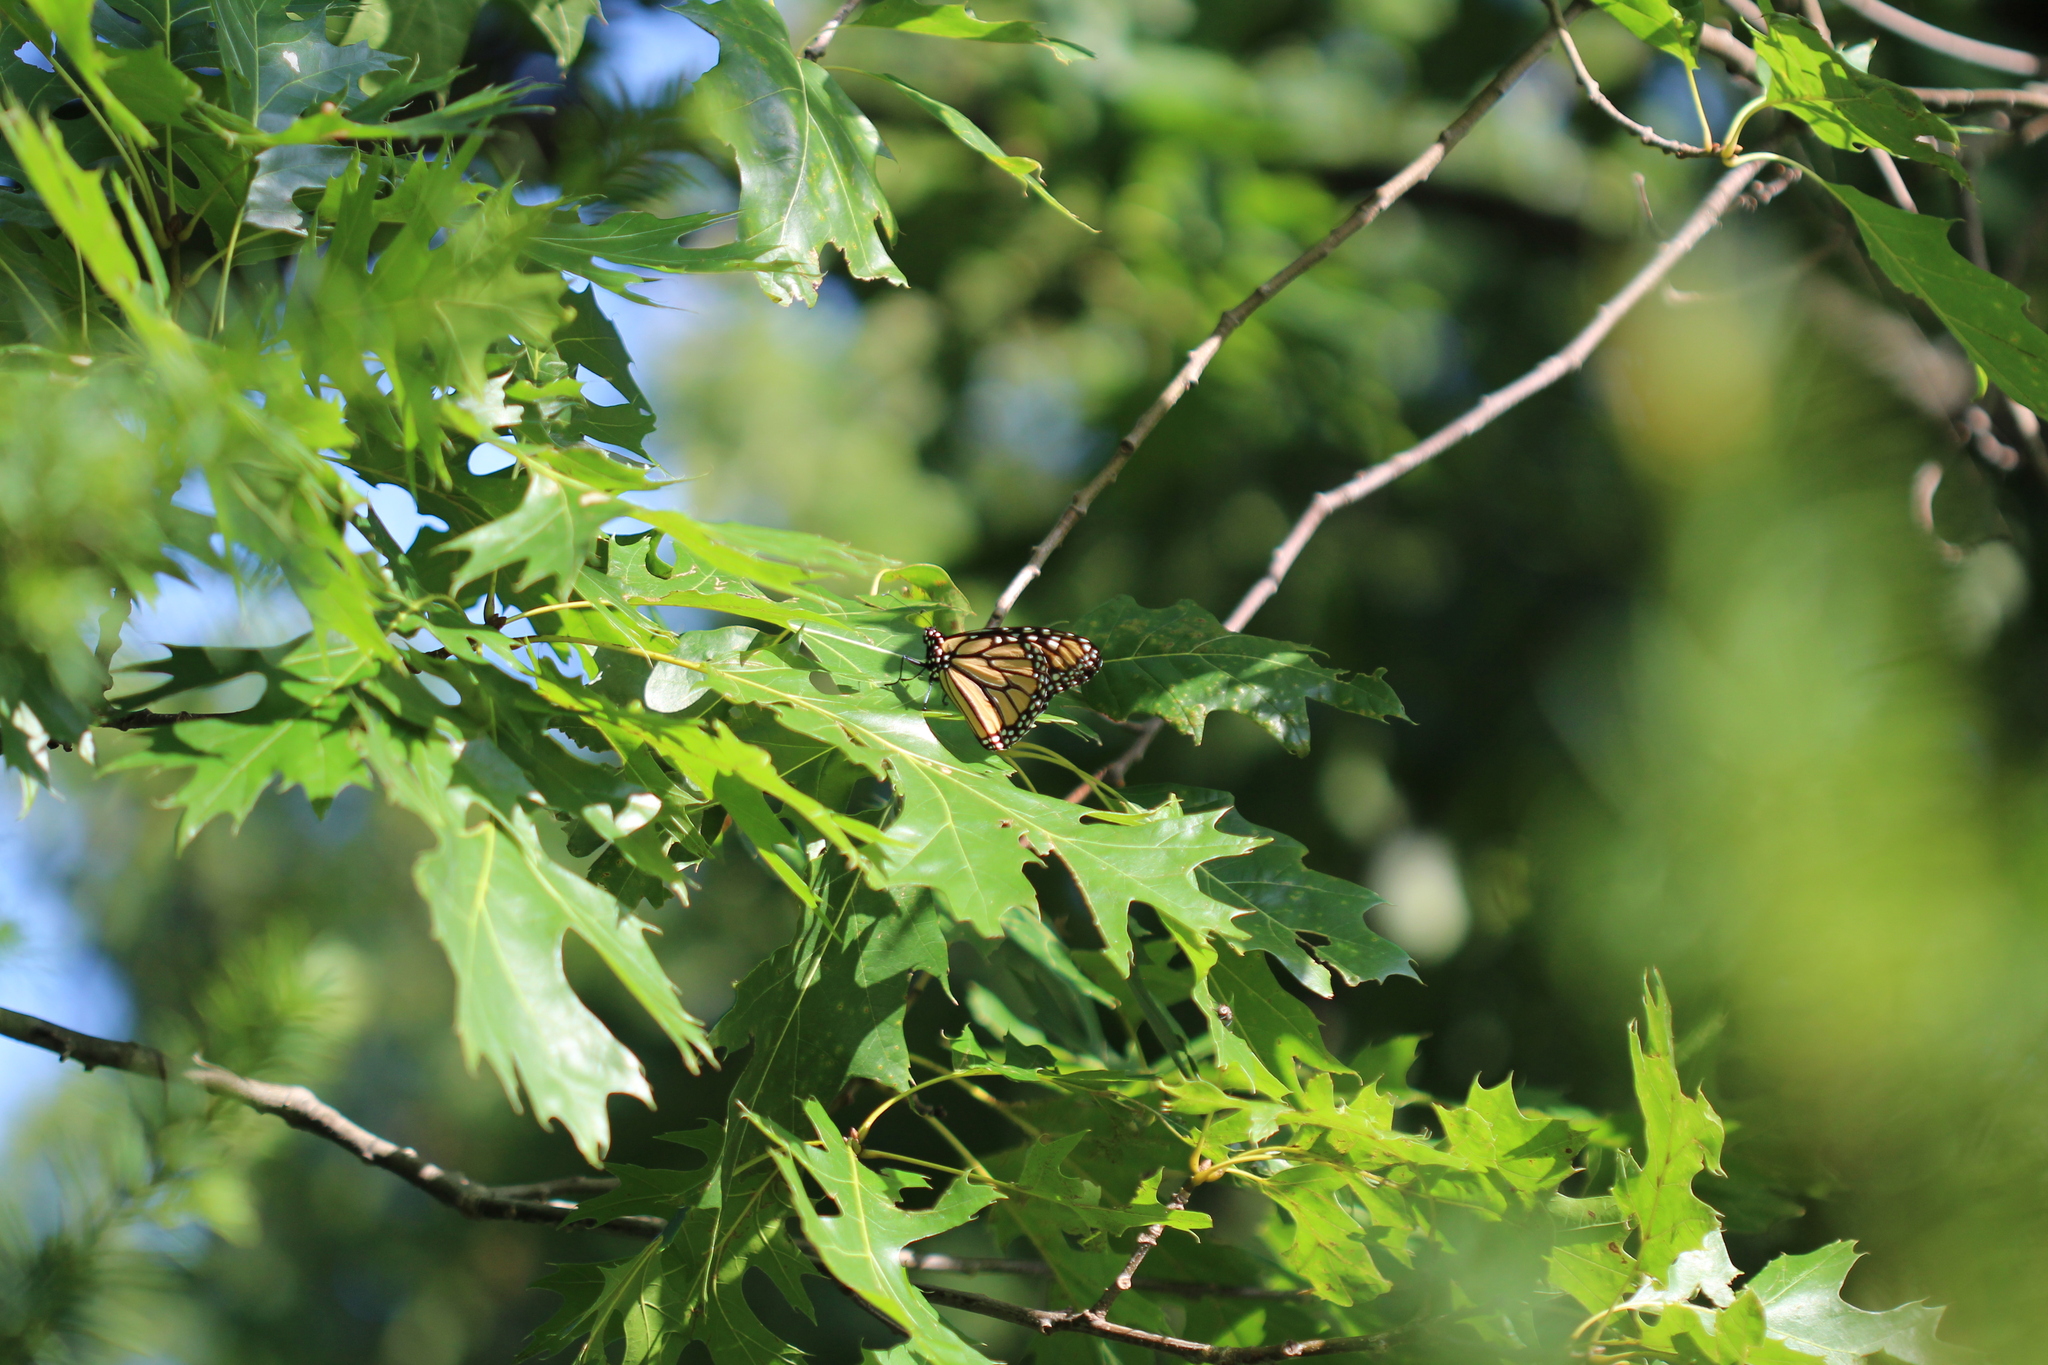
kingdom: Animalia
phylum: Arthropoda
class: Insecta
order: Lepidoptera
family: Nymphalidae
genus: Danaus
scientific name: Danaus plexippus
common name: Monarch
